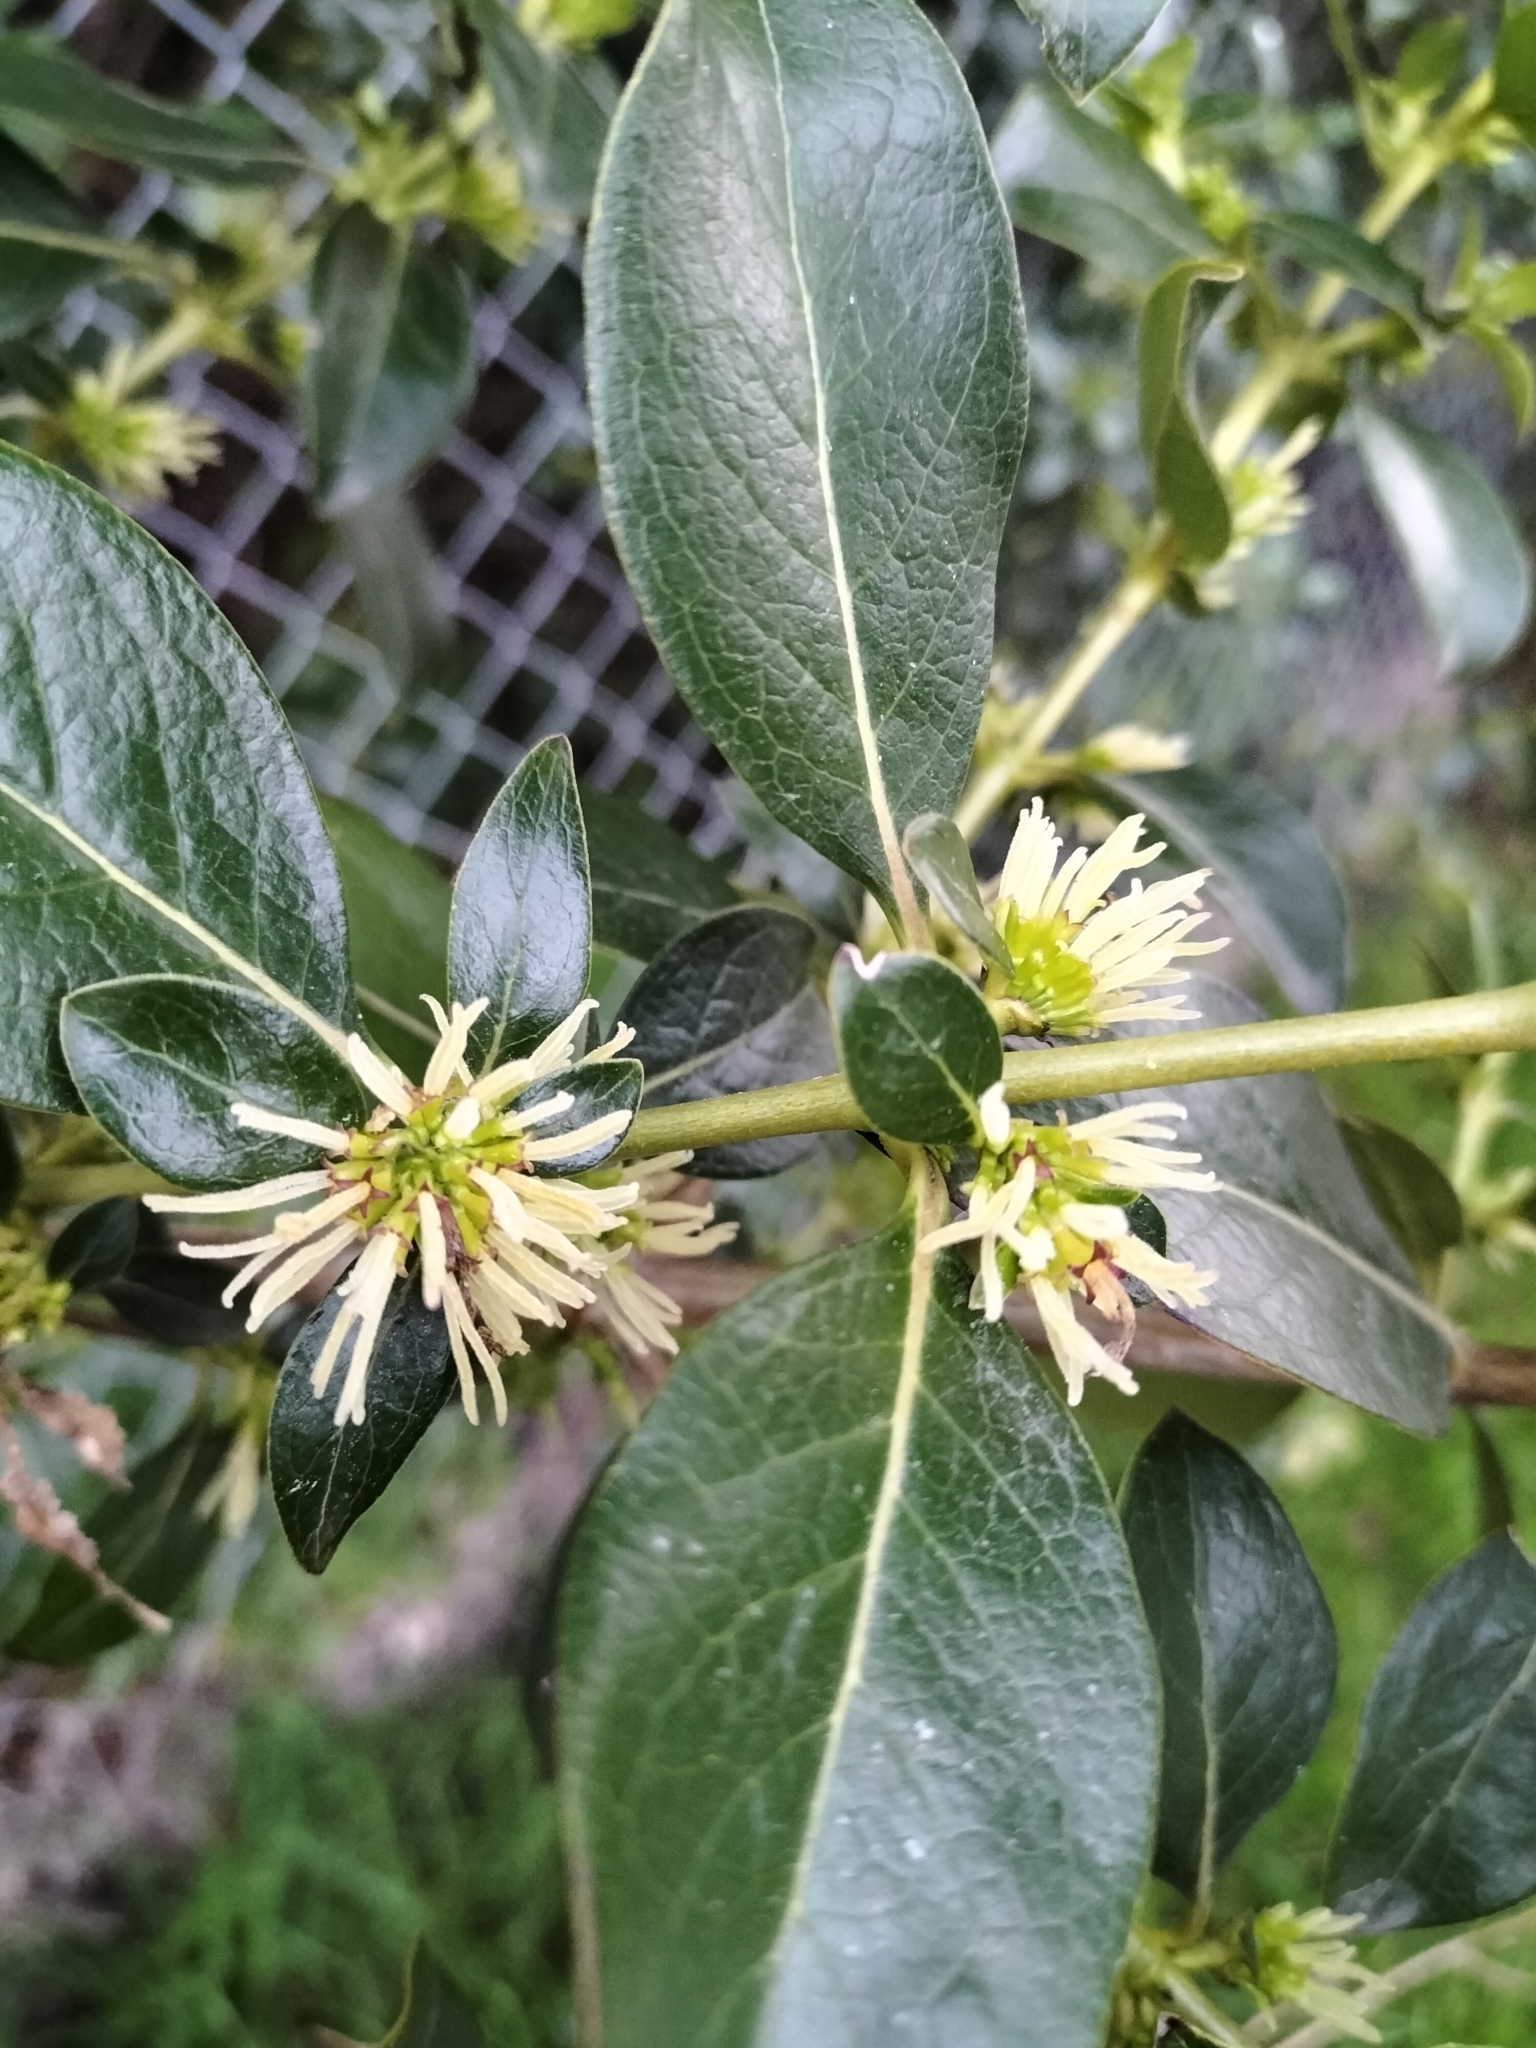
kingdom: Plantae
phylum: Tracheophyta
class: Magnoliopsida
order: Gentianales
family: Rubiaceae
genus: Coprosma
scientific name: Coprosma robusta
